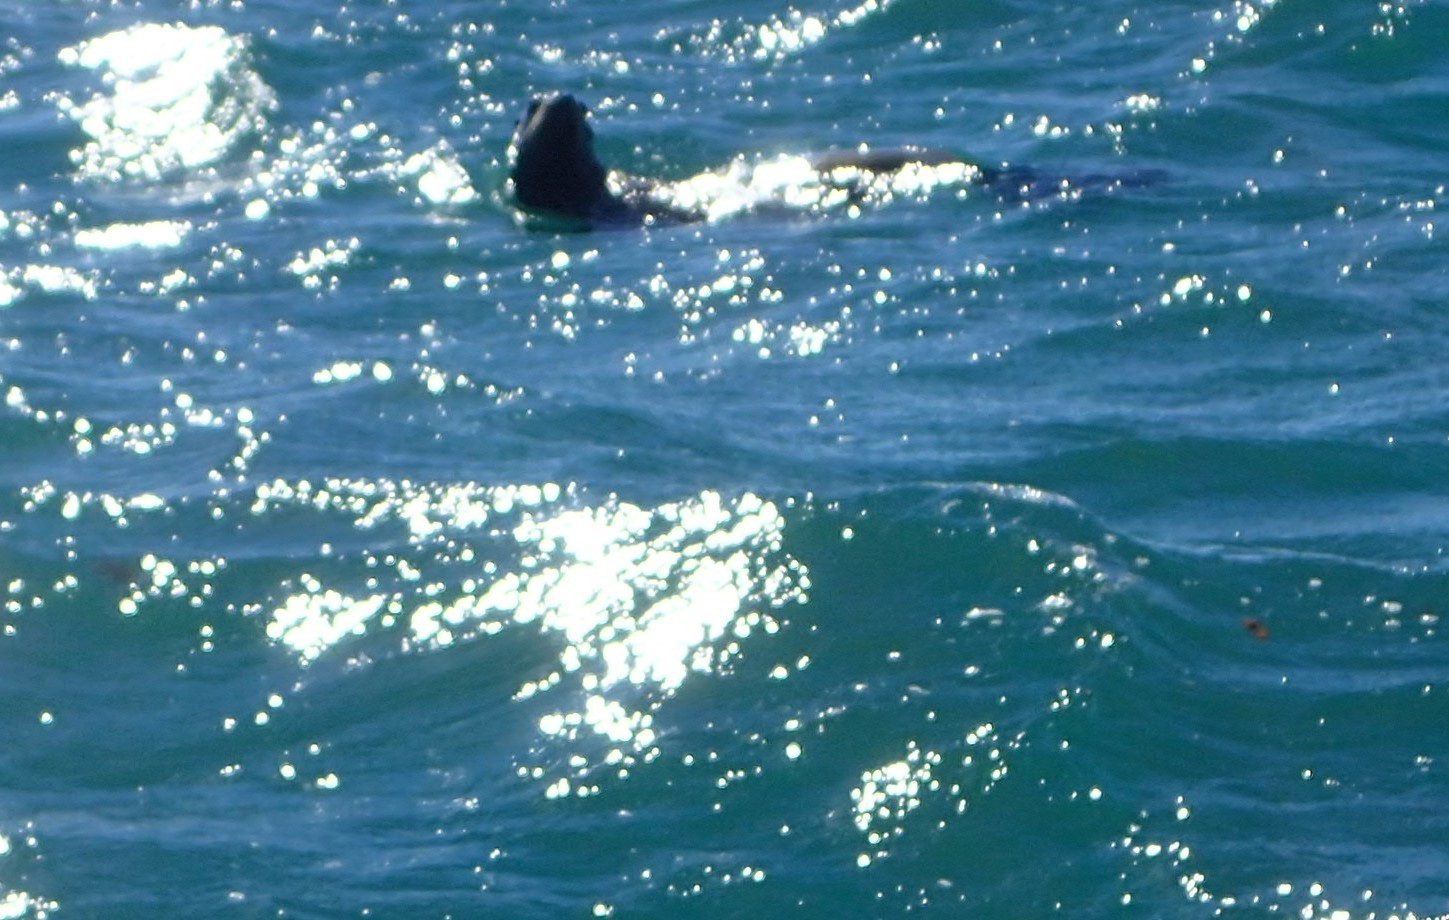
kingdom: Animalia
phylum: Chordata
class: Mammalia
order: Carnivora
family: Otariidae
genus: Zalophus
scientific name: Zalophus californianus
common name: California sea lion
